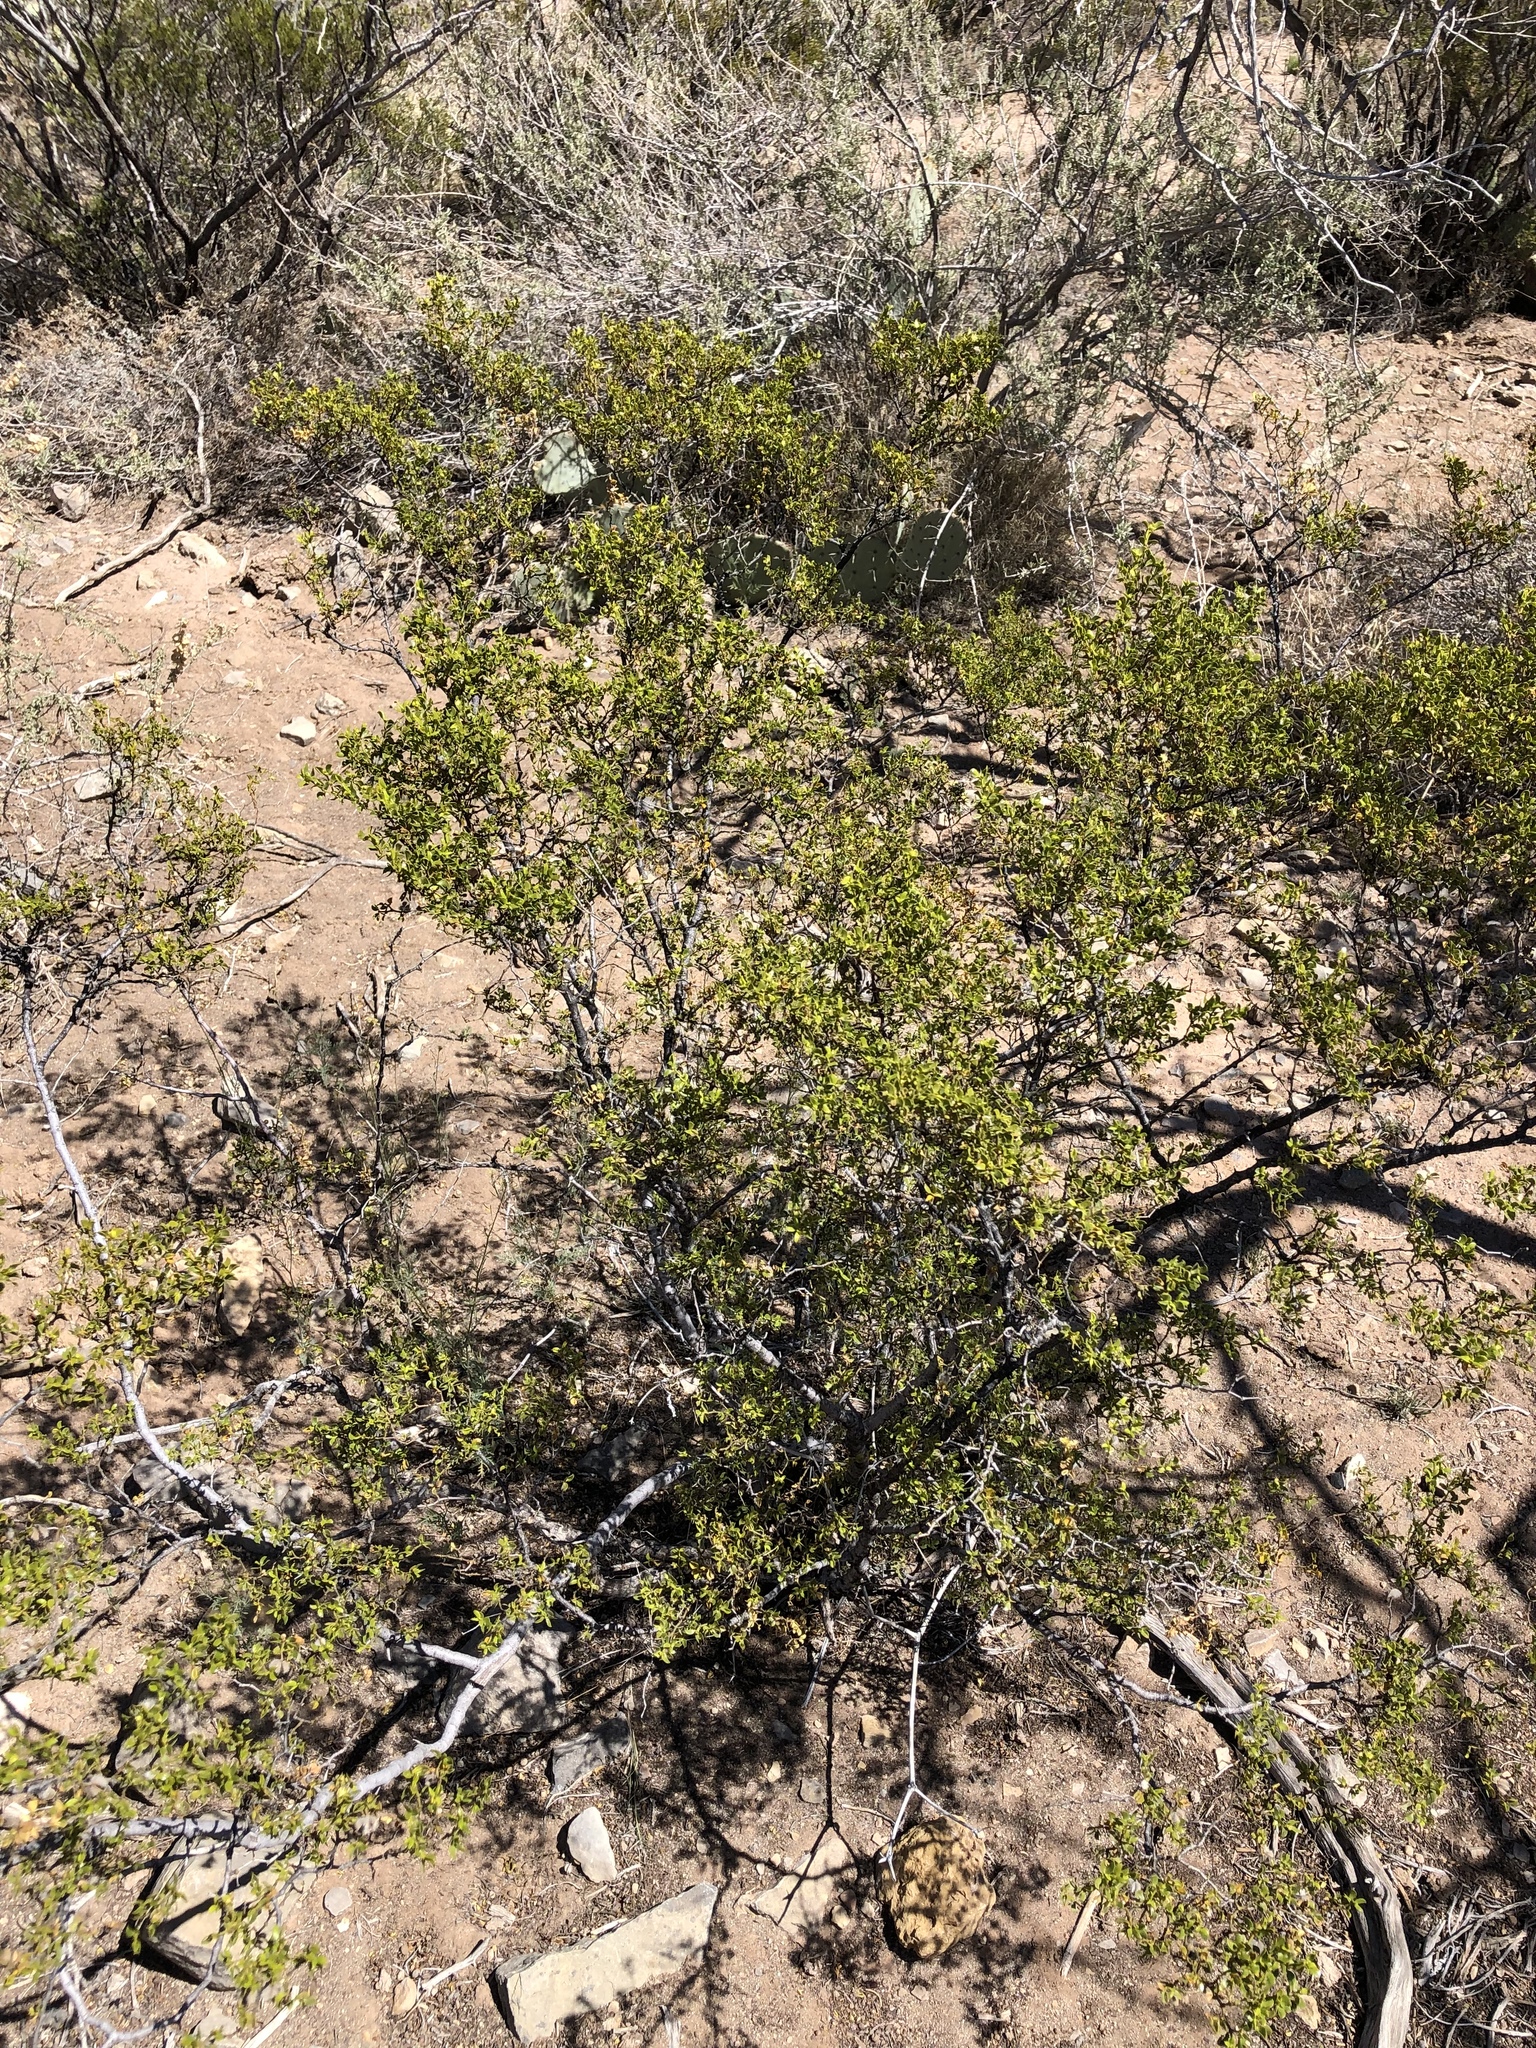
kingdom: Plantae
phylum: Tracheophyta
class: Magnoliopsida
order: Zygophyllales
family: Zygophyllaceae
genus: Larrea
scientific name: Larrea tridentata
